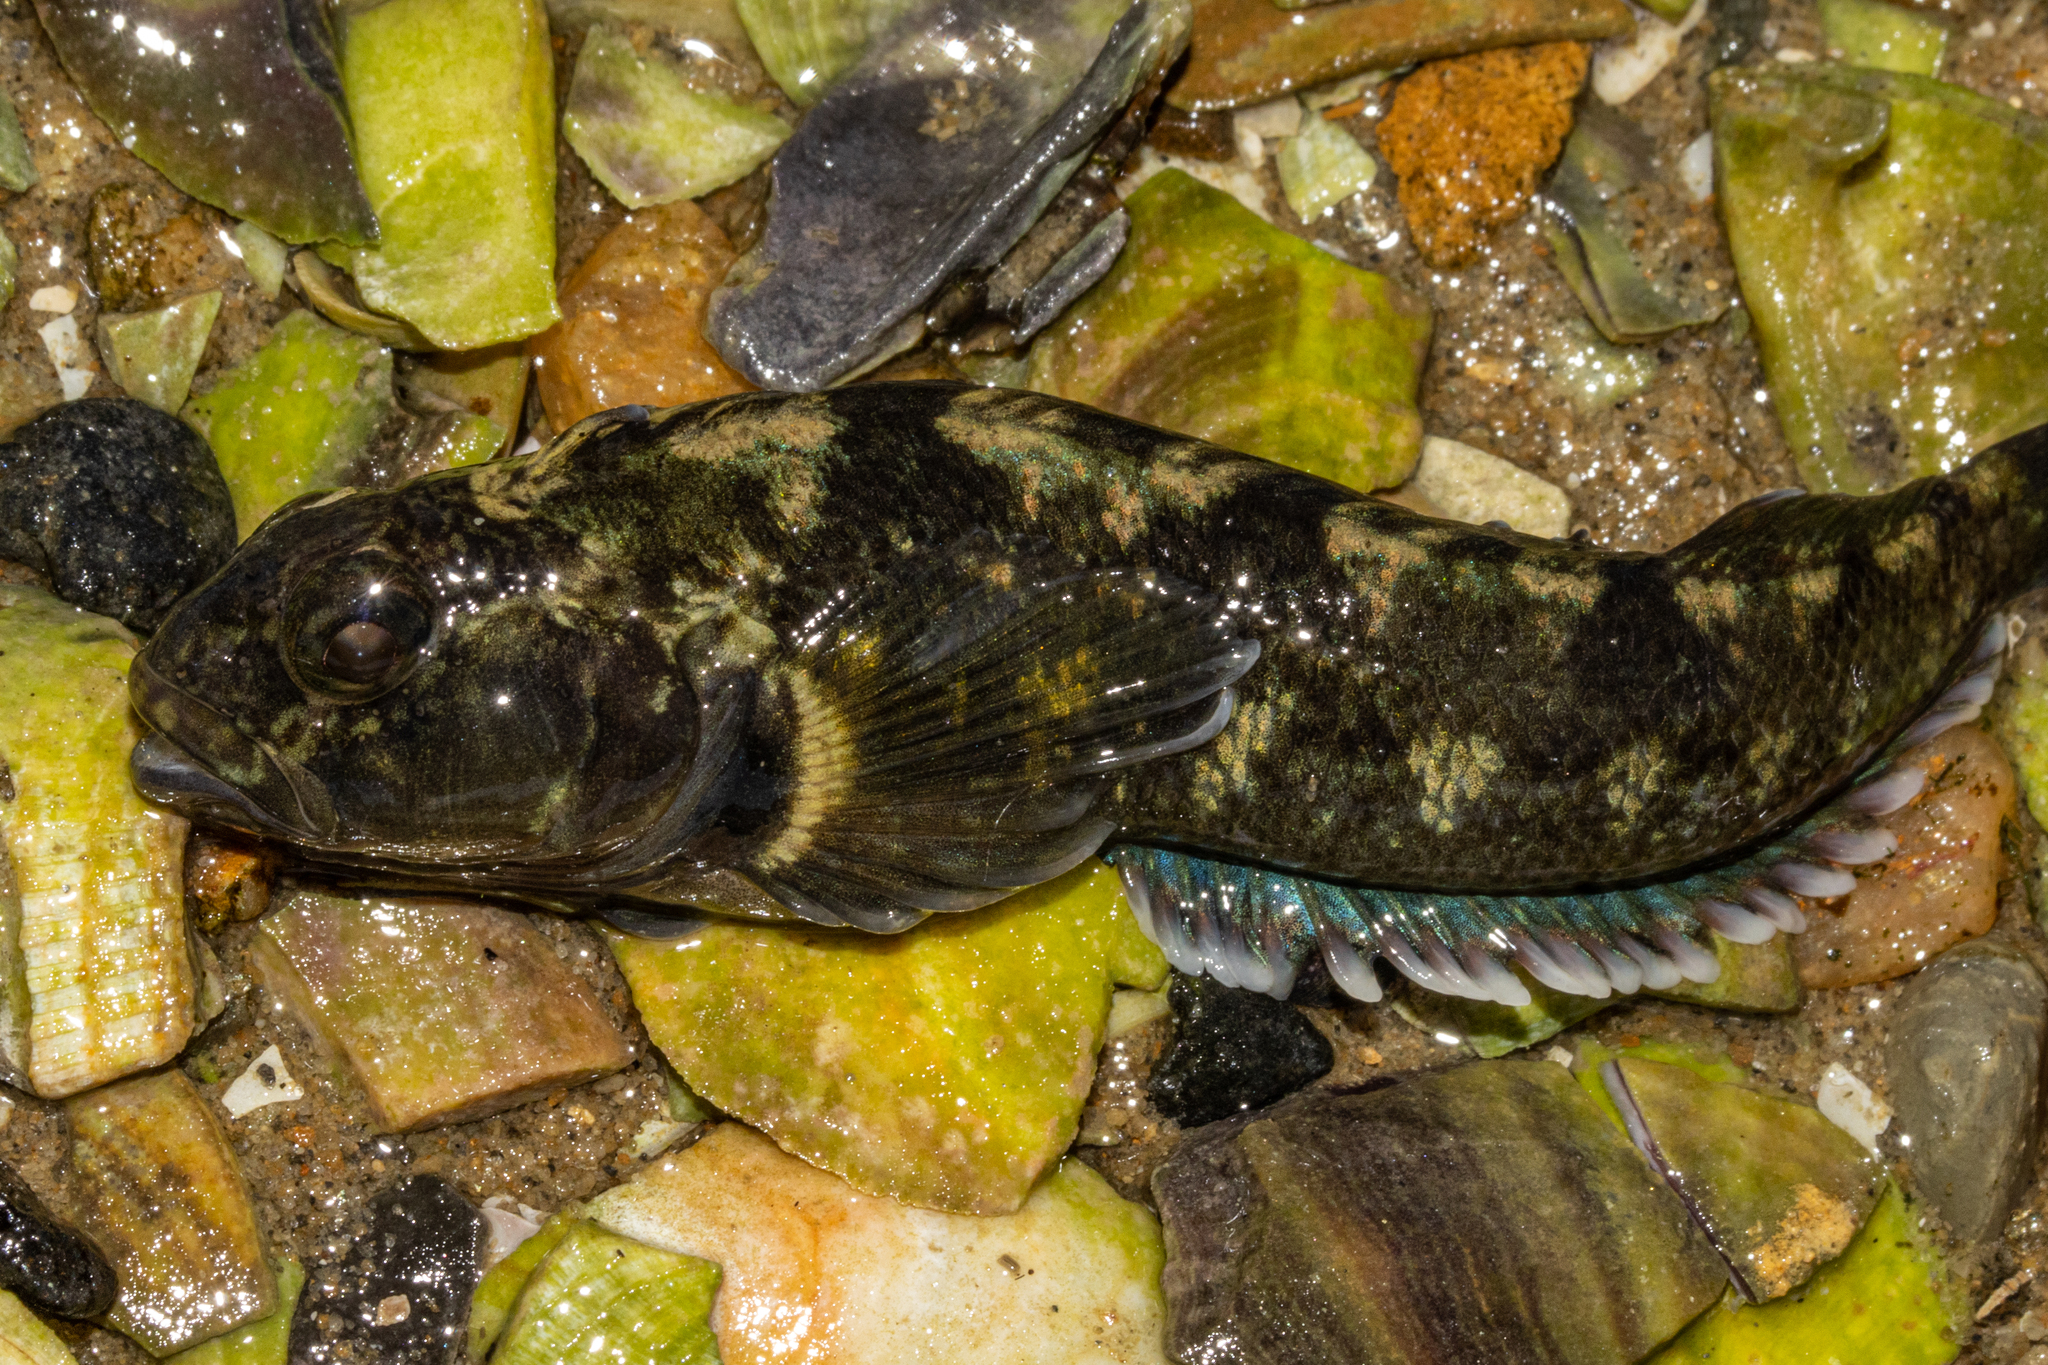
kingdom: Animalia
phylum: Chordata
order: Perciformes
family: Tripterygiidae
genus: Forsterygion
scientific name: Forsterygion gymnotum
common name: Multifid-tentacled robust triplefin
